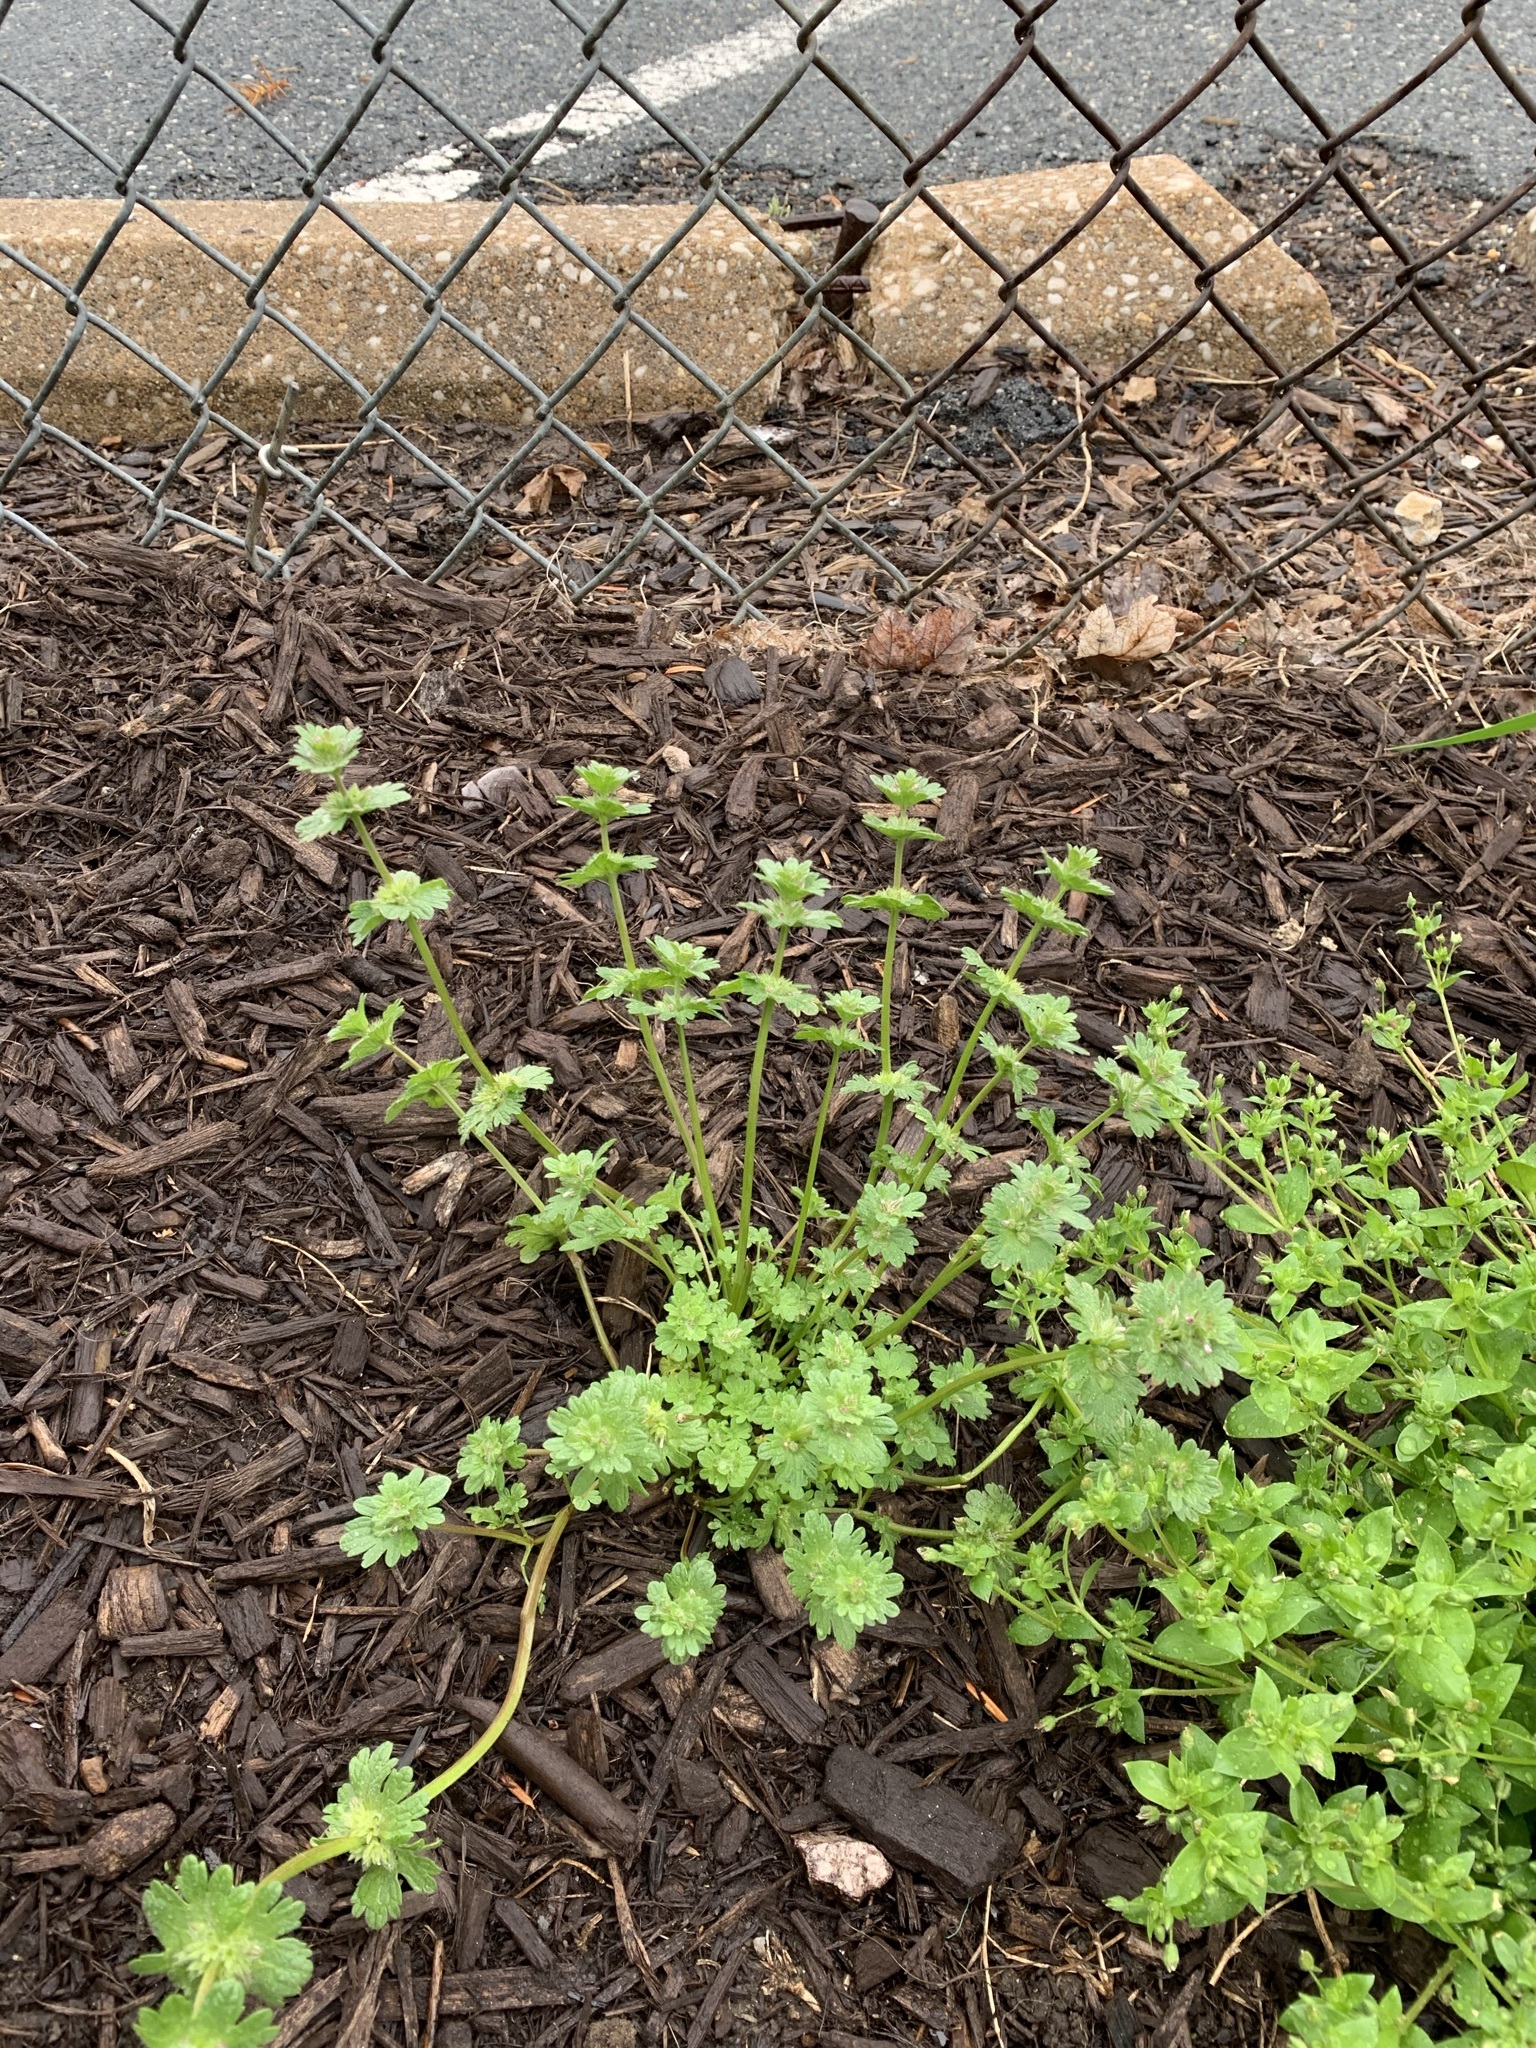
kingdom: Plantae
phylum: Tracheophyta
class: Magnoliopsida
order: Lamiales
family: Lamiaceae
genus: Lamium
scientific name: Lamium amplexicaule
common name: Henbit dead-nettle
